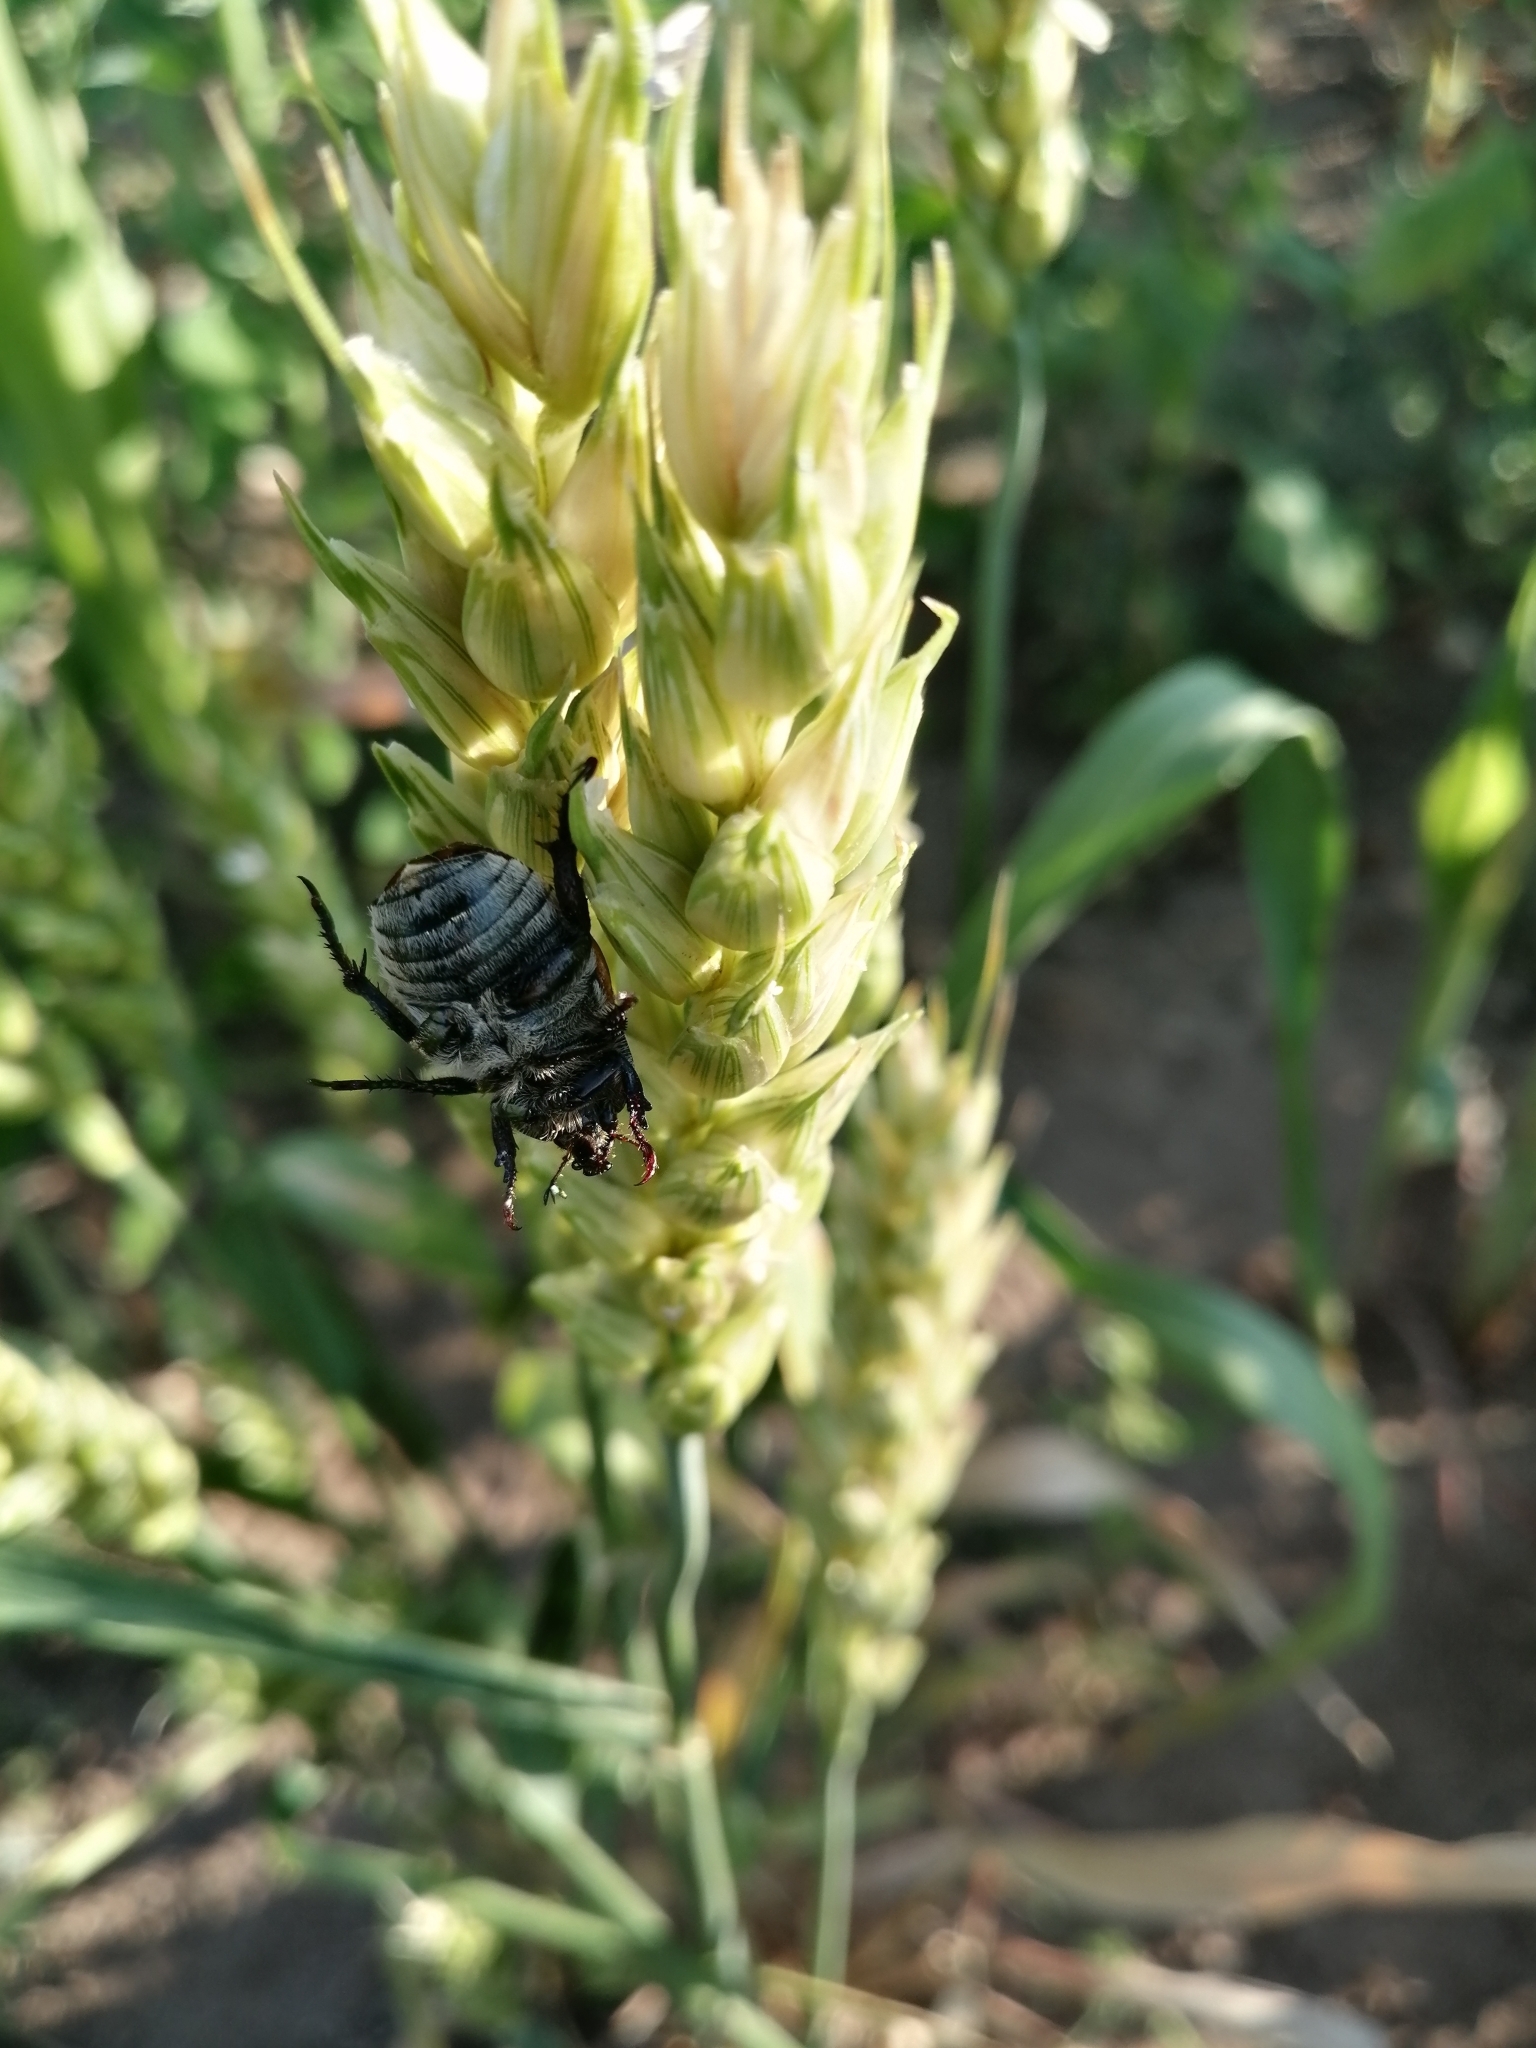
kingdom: Animalia
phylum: Arthropoda
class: Insecta
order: Coleoptera
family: Scarabaeidae
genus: Anisoplia
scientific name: Anisoplia austriaca
